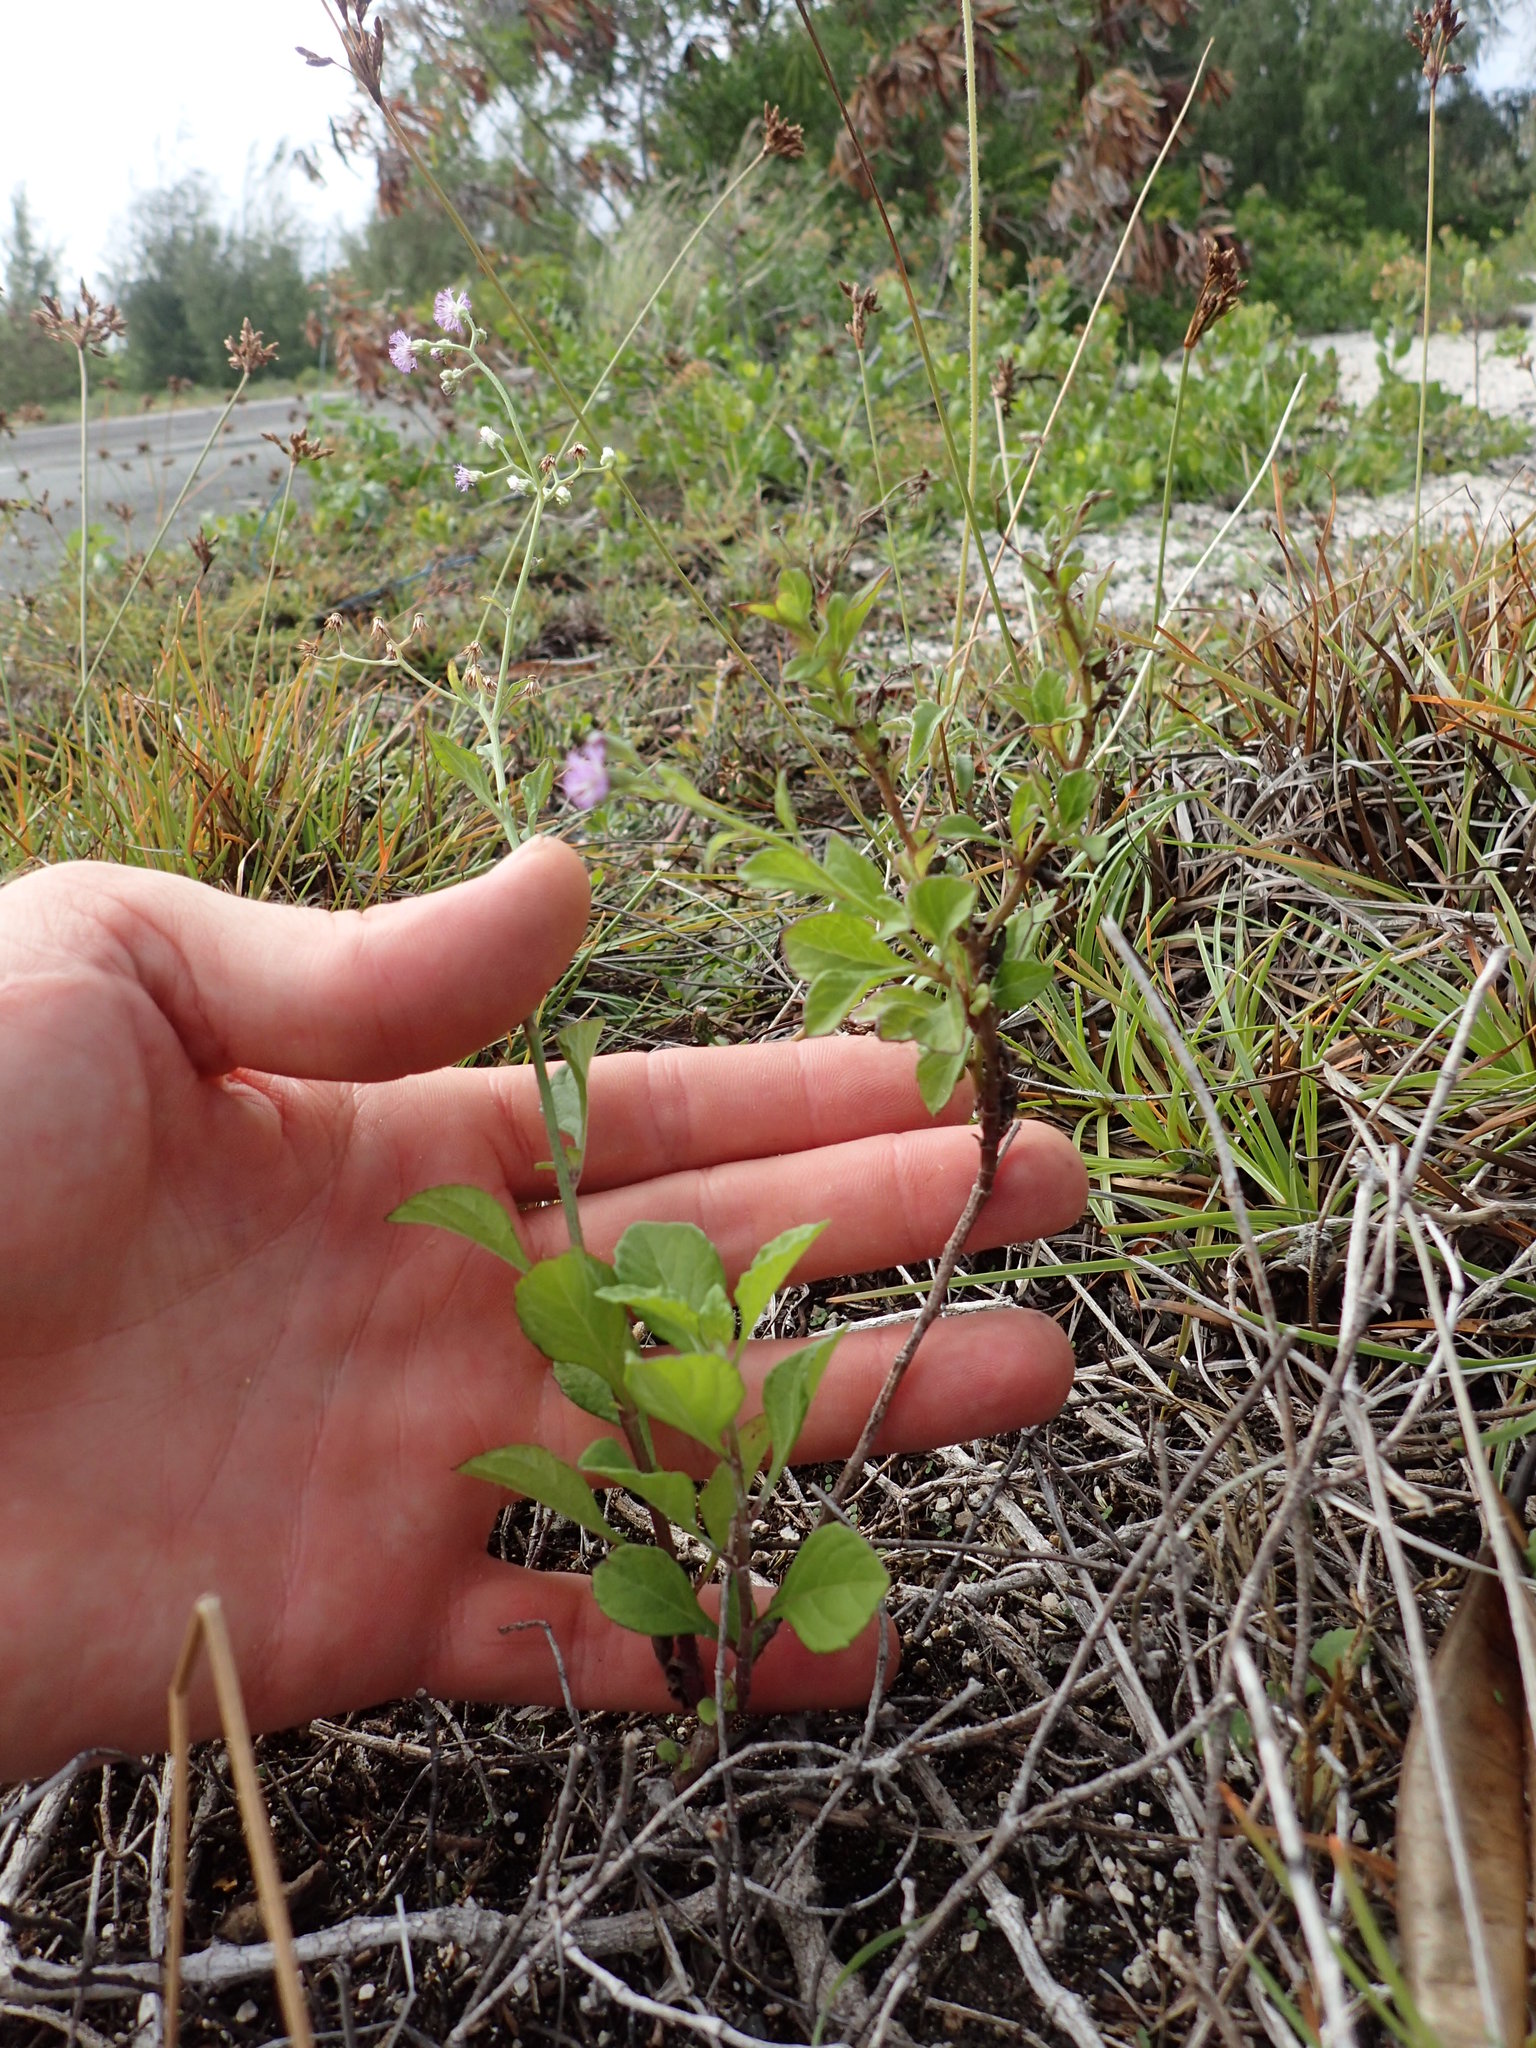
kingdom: Plantae
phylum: Tracheophyta
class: Magnoliopsida
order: Asterales
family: Asteraceae
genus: Cyanthillium
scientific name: Cyanthillium cinereum
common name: Little ironweed
